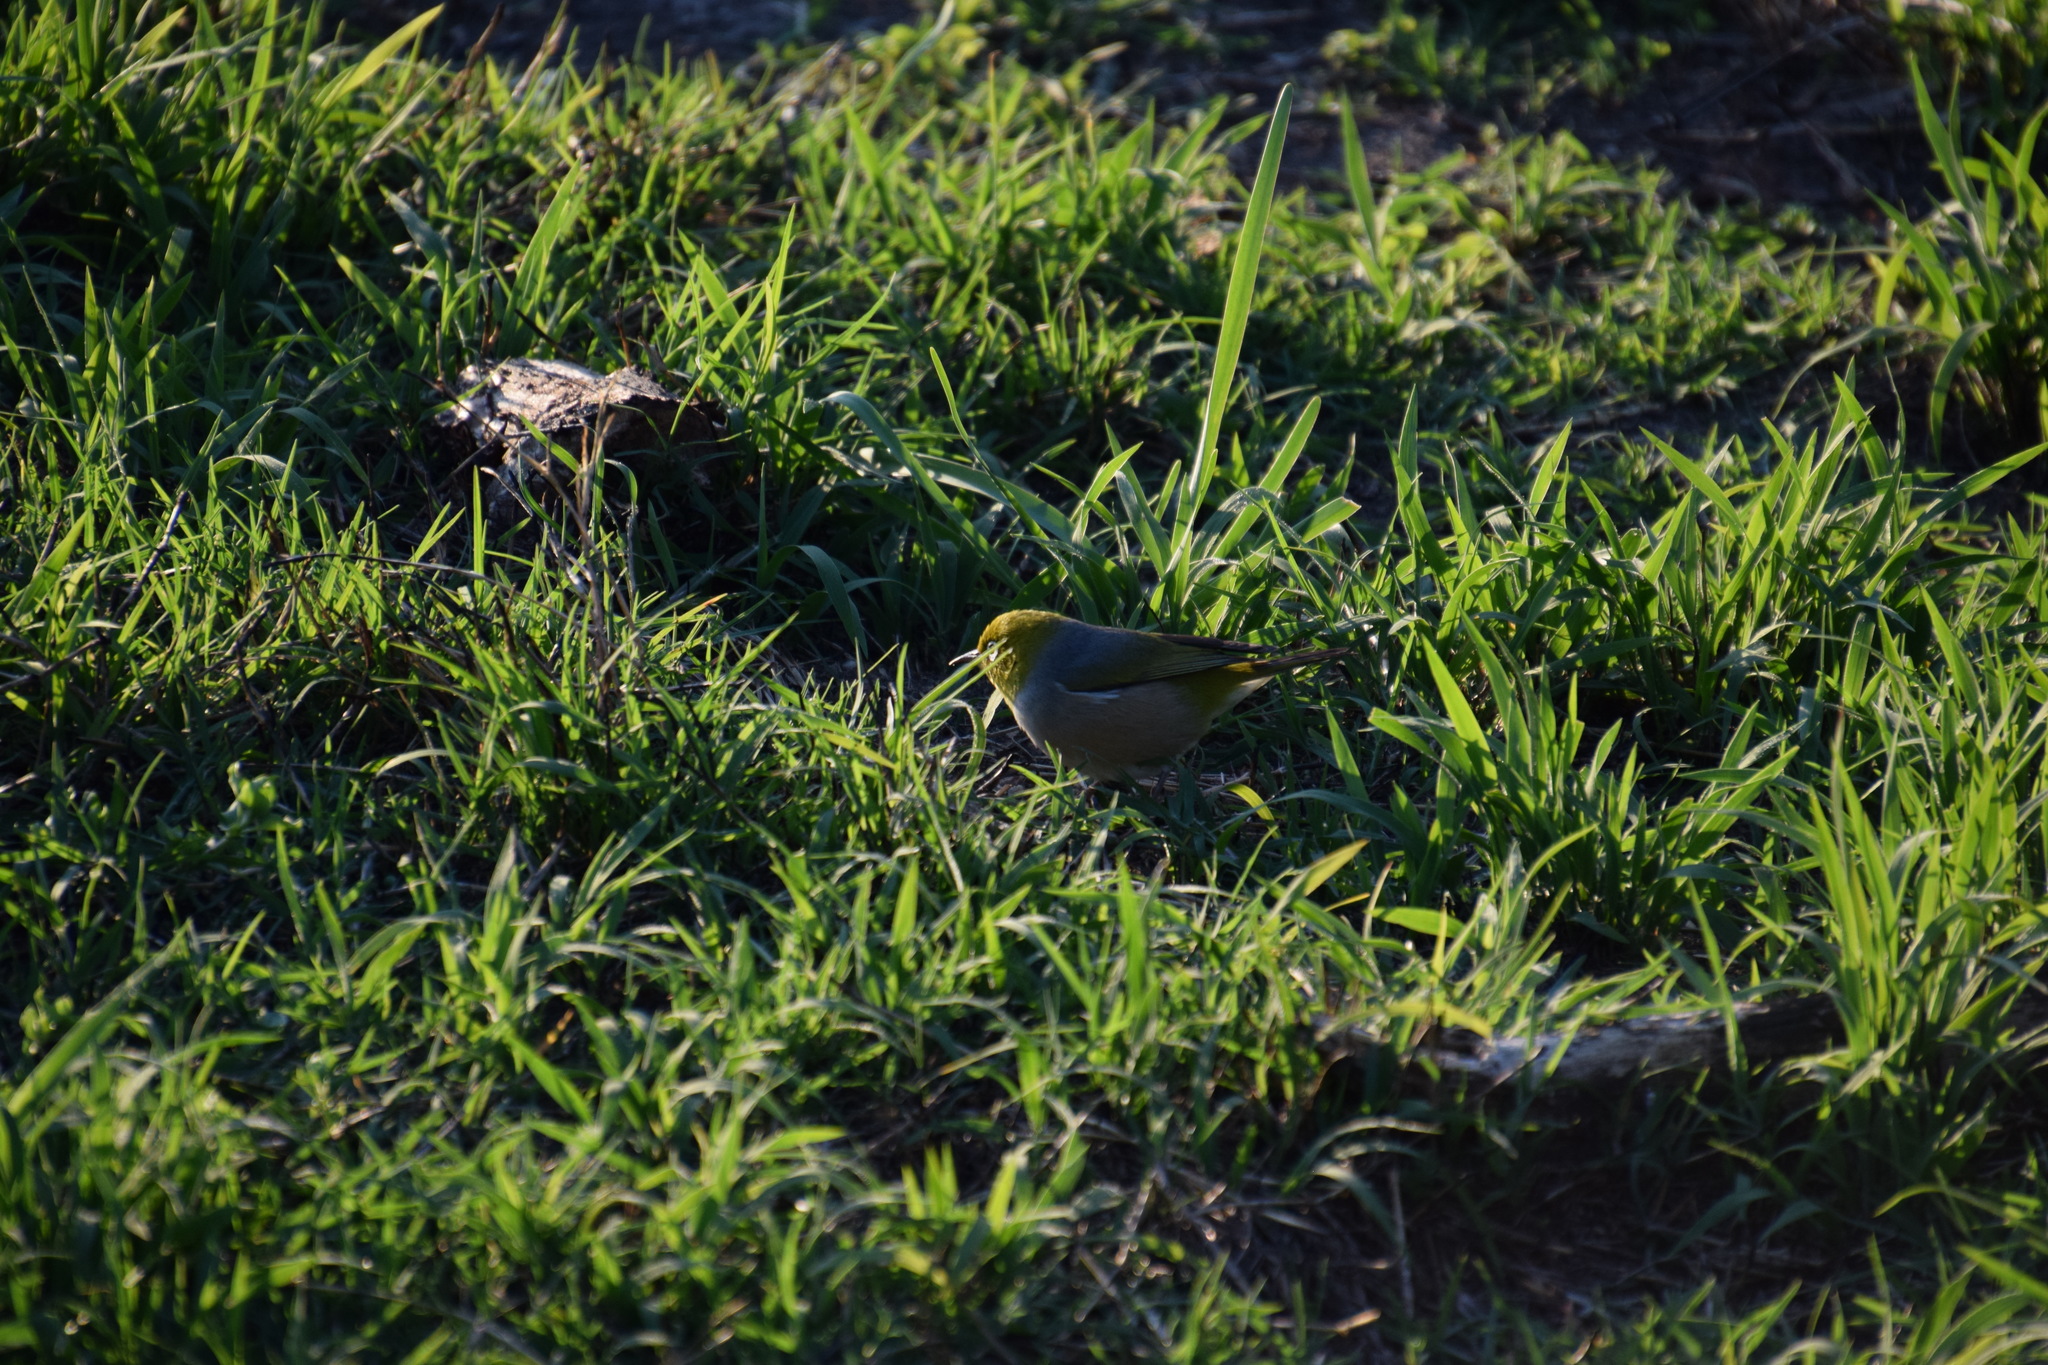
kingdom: Animalia
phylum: Chordata
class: Aves
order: Passeriformes
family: Zosteropidae
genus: Zosterops
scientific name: Zosterops lateralis
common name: Silvereye
